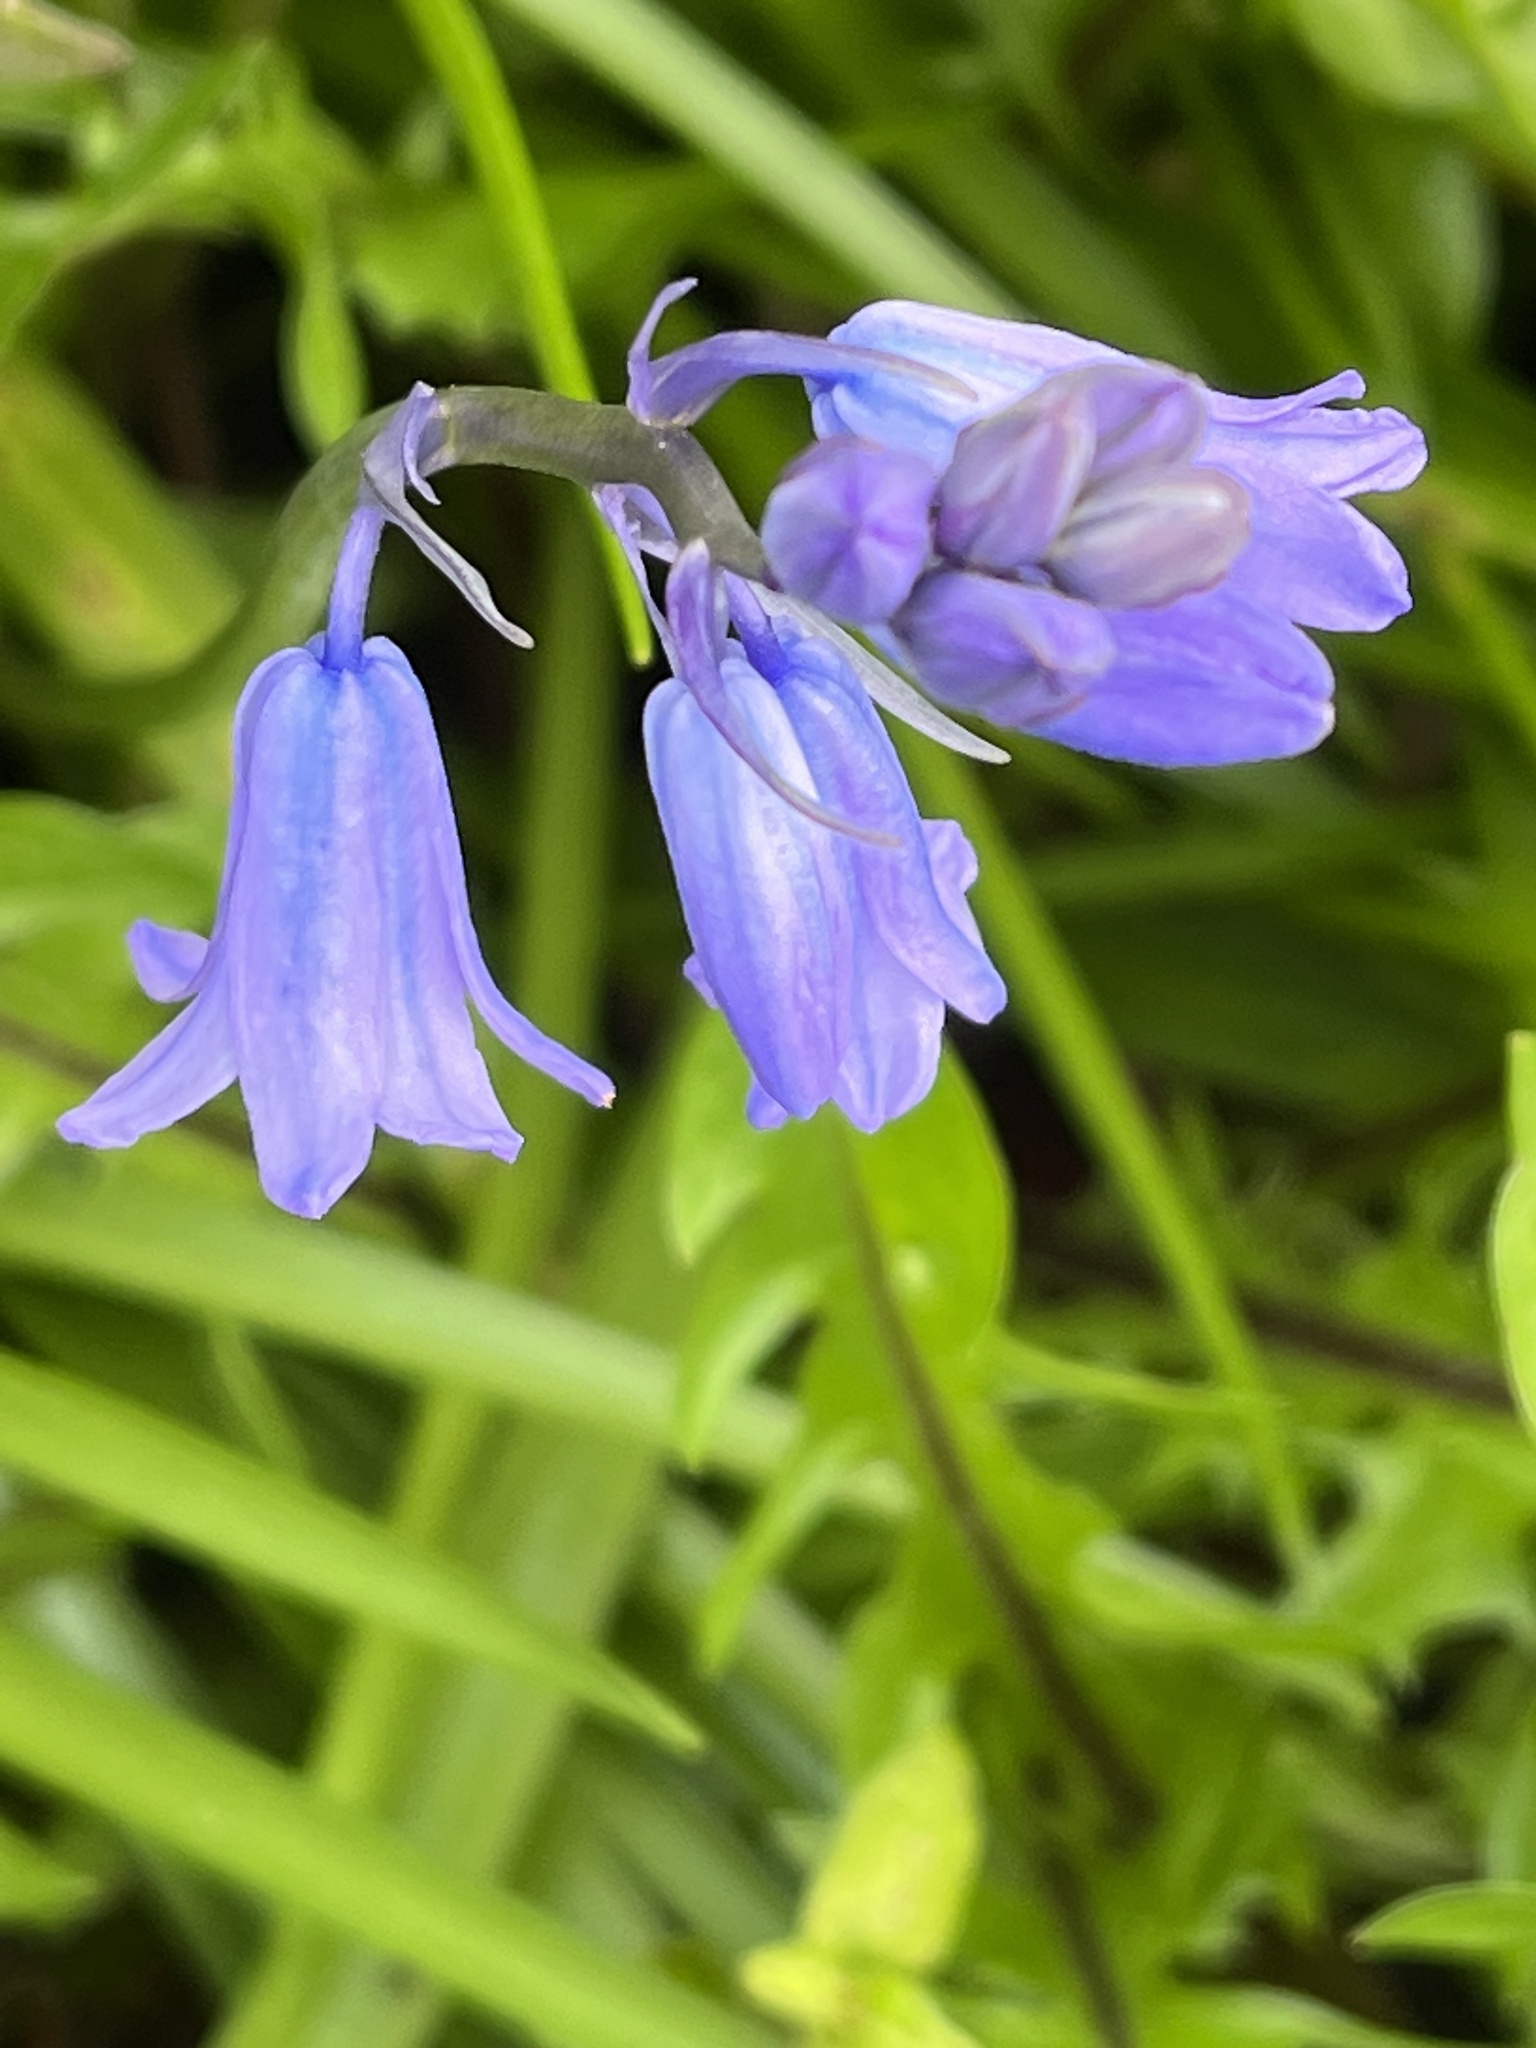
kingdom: Plantae
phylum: Tracheophyta
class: Liliopsida
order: Asparagales
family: Asparagaceae
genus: Hyacinthoides
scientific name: Hyacinthoides non-scripta
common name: Bluebell
